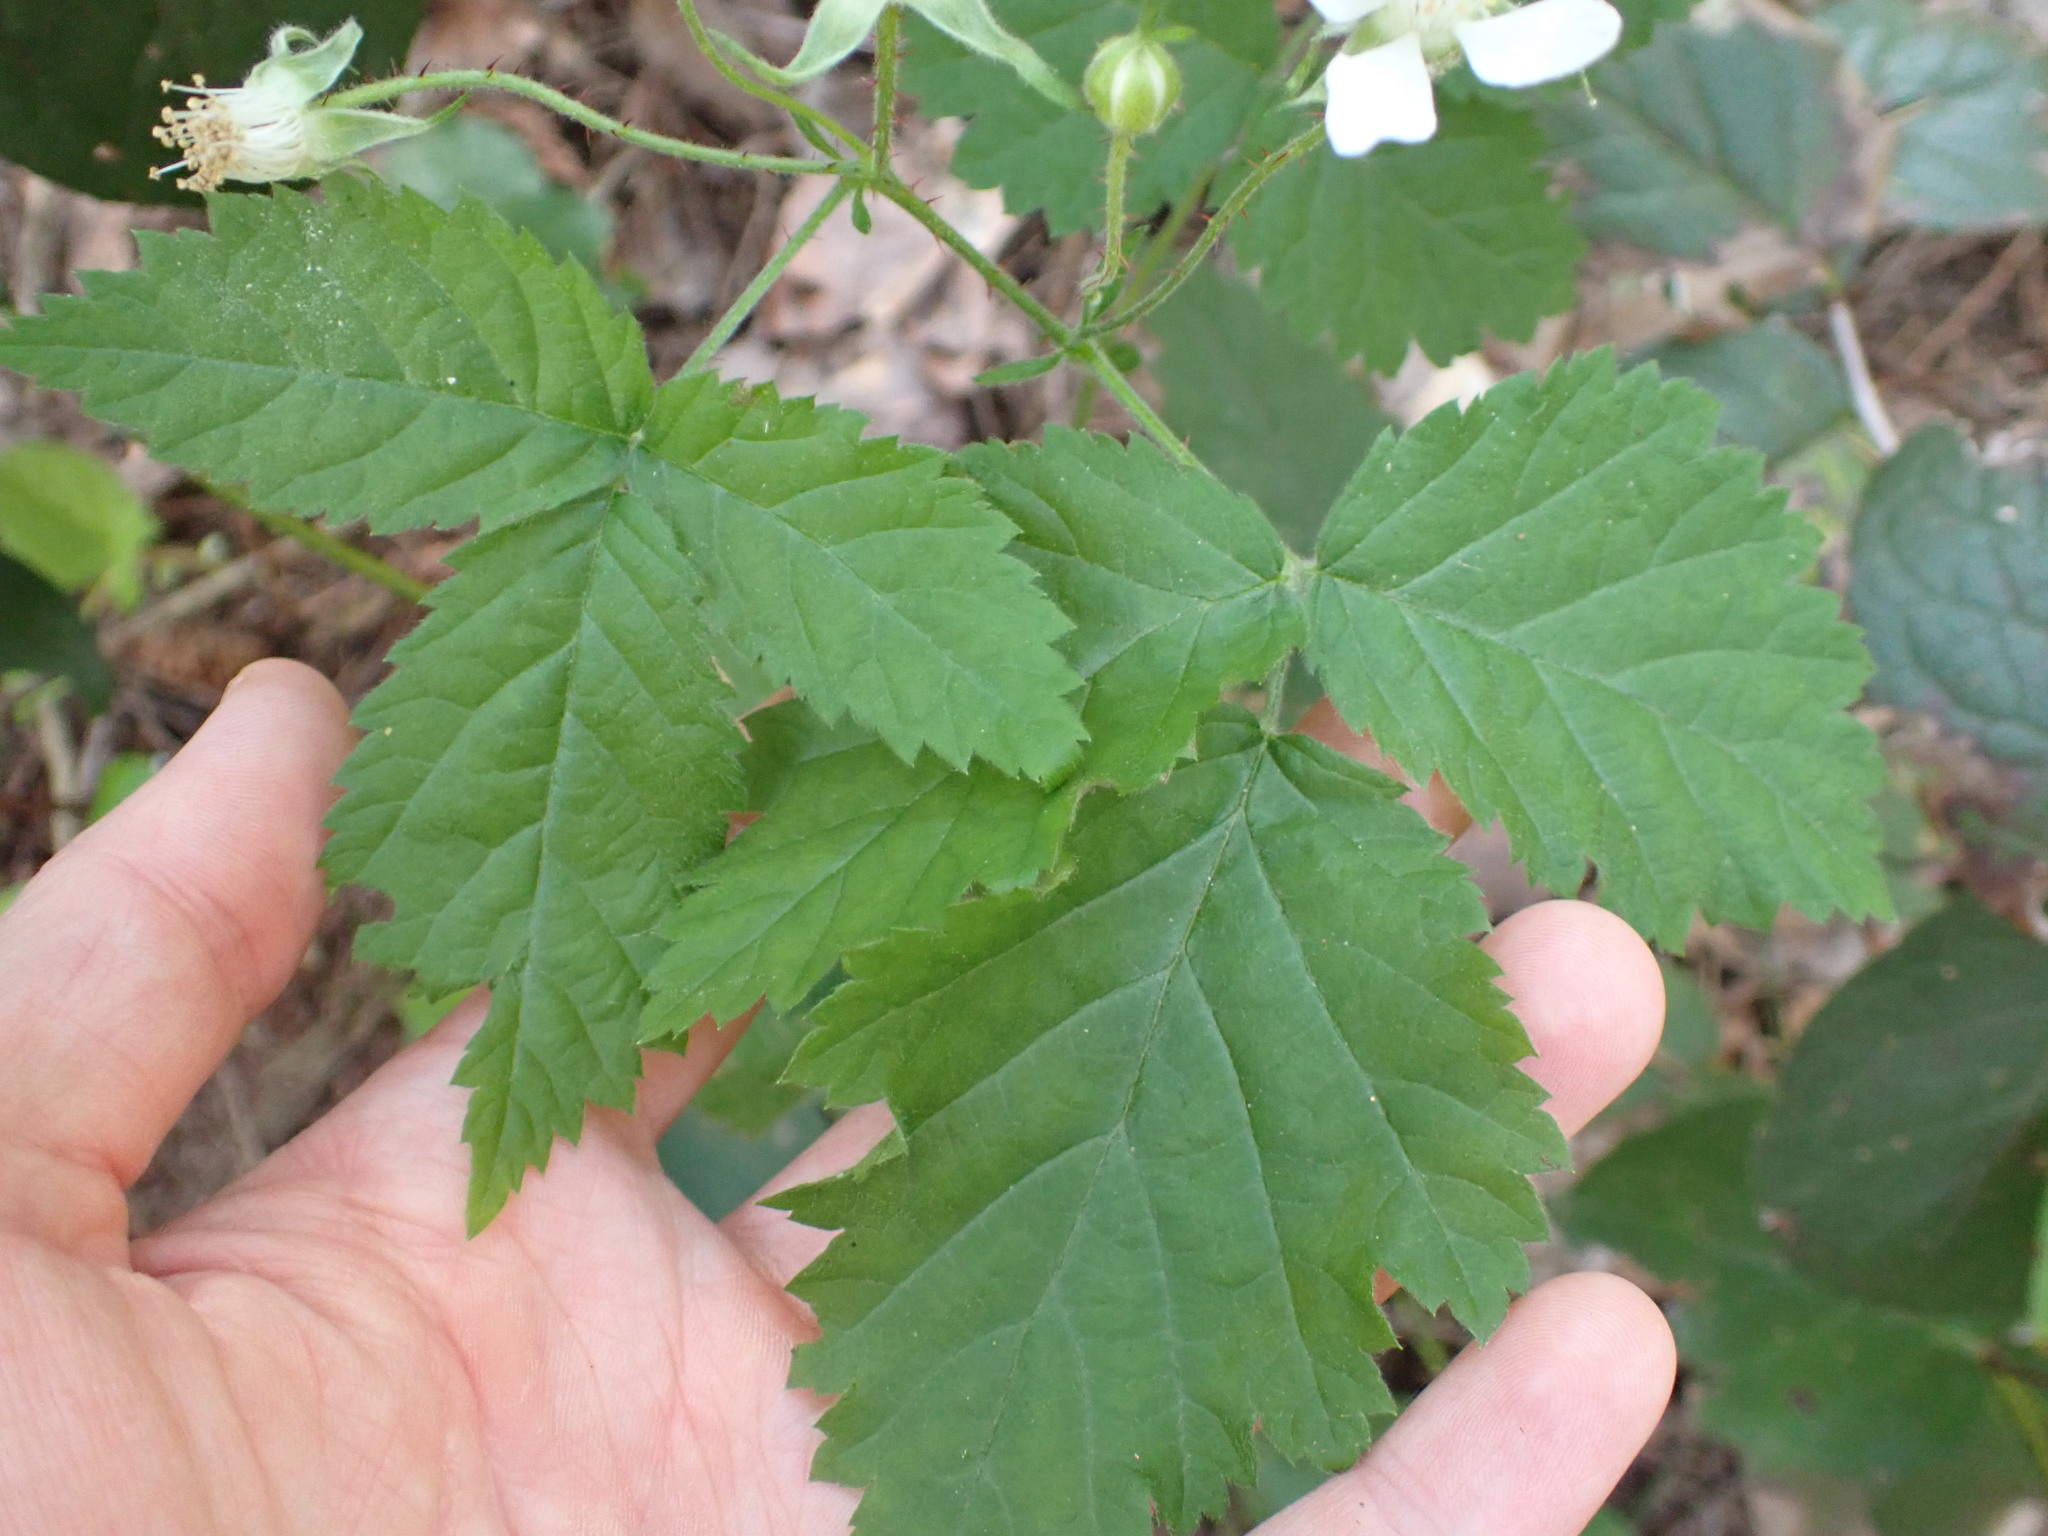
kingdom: Plantae
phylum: Tracheophyta
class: Magnoliopsida
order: Rosales
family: Rosaceae
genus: Rubus
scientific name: Rubus ursinus
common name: Pacific blackberry
